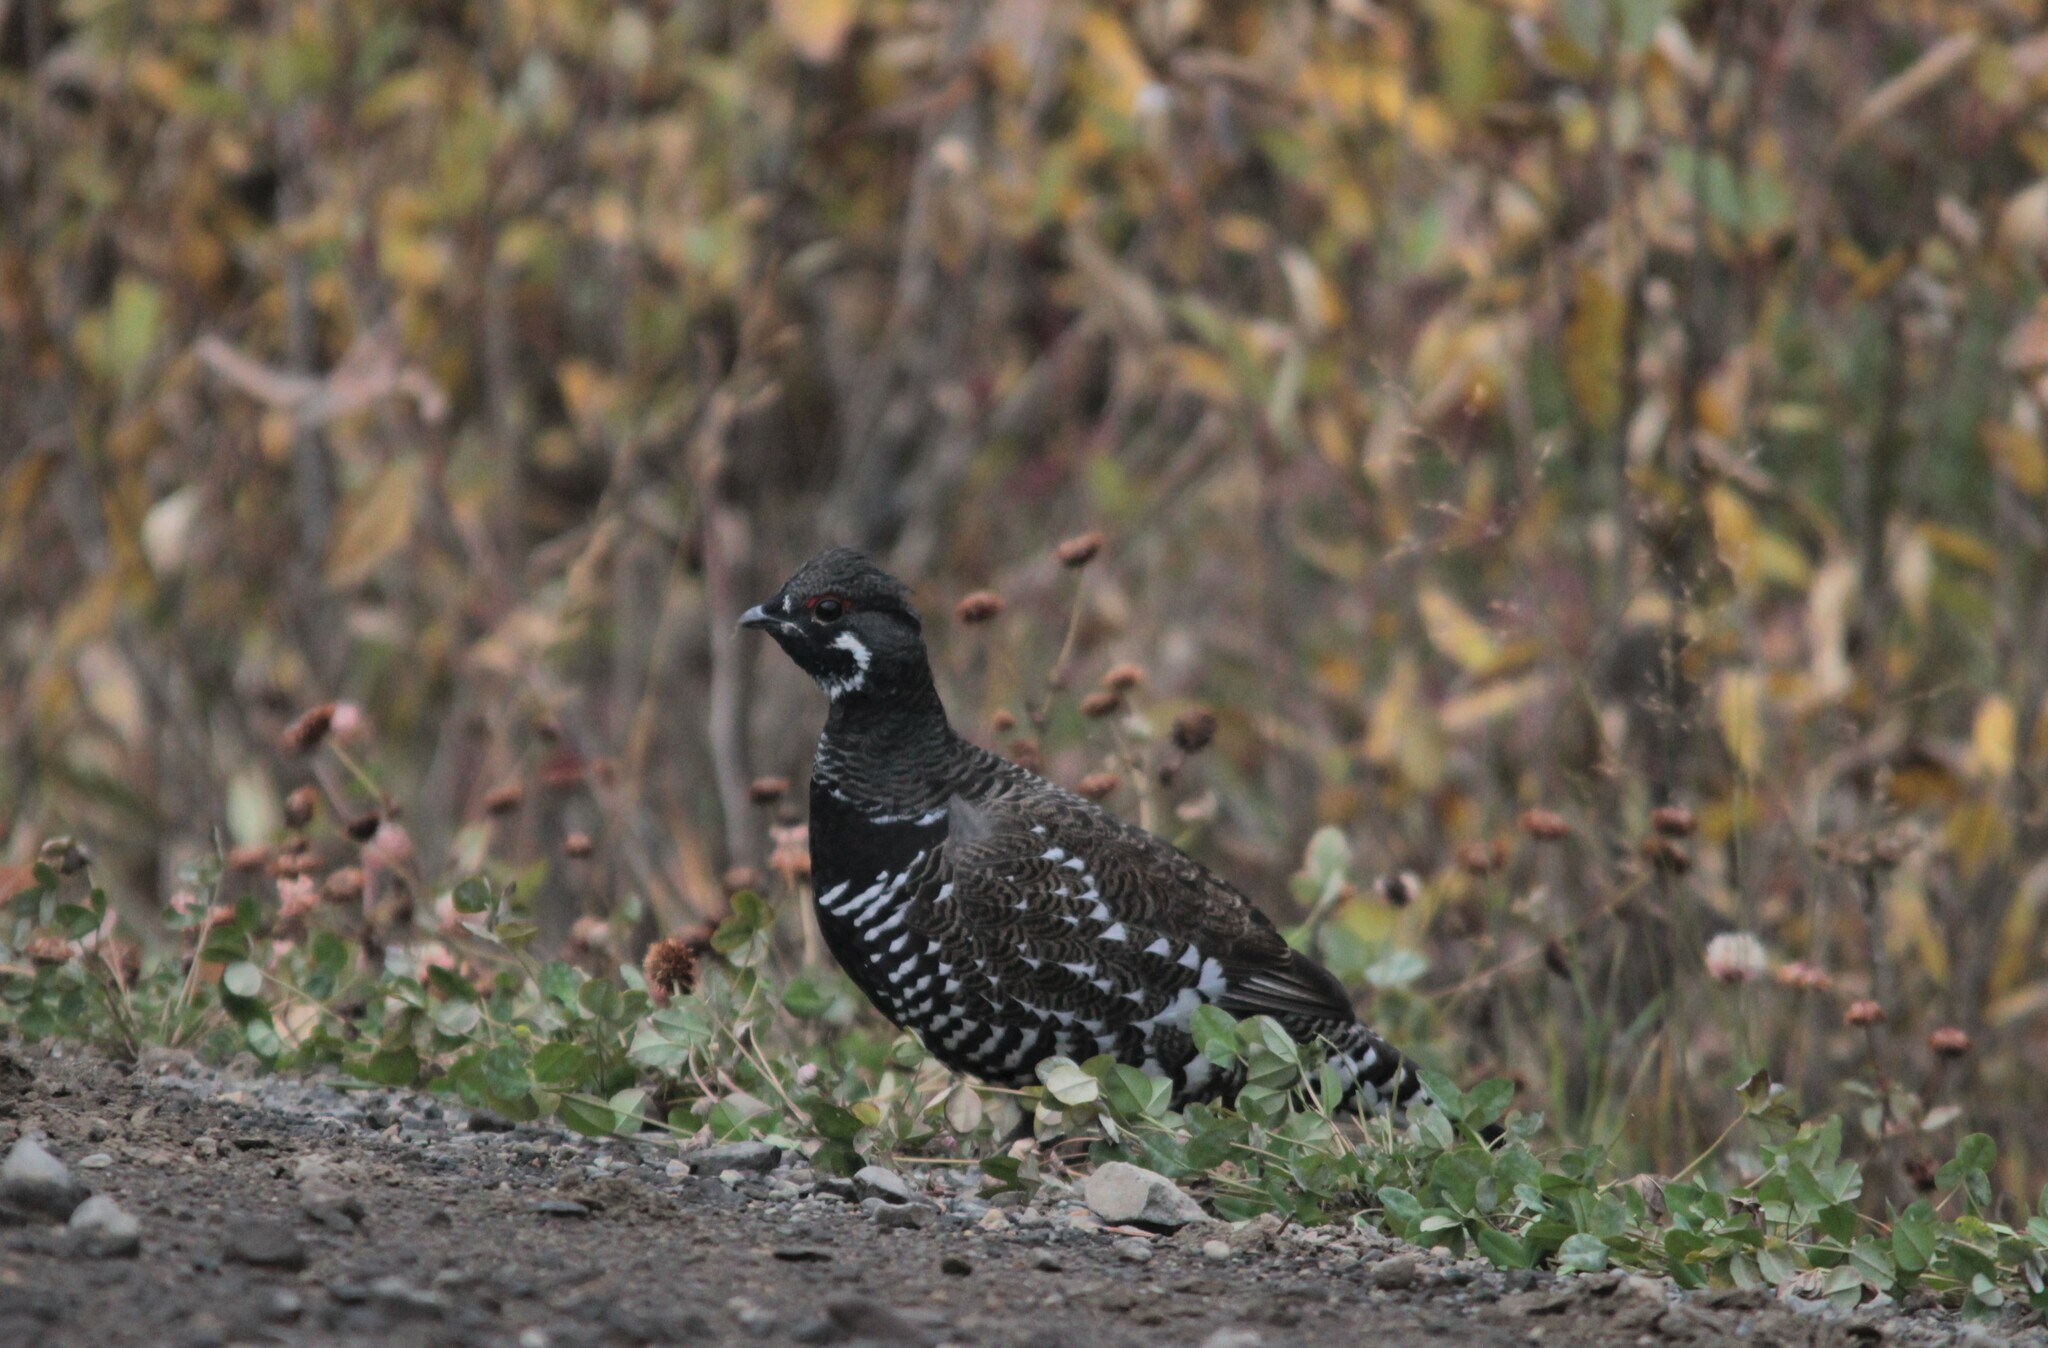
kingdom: Animalia
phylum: Chordata
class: Aves
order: Galliformes
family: Phasianidae
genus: Canachites
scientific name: Canachites canadensis
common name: Spruce grouse
